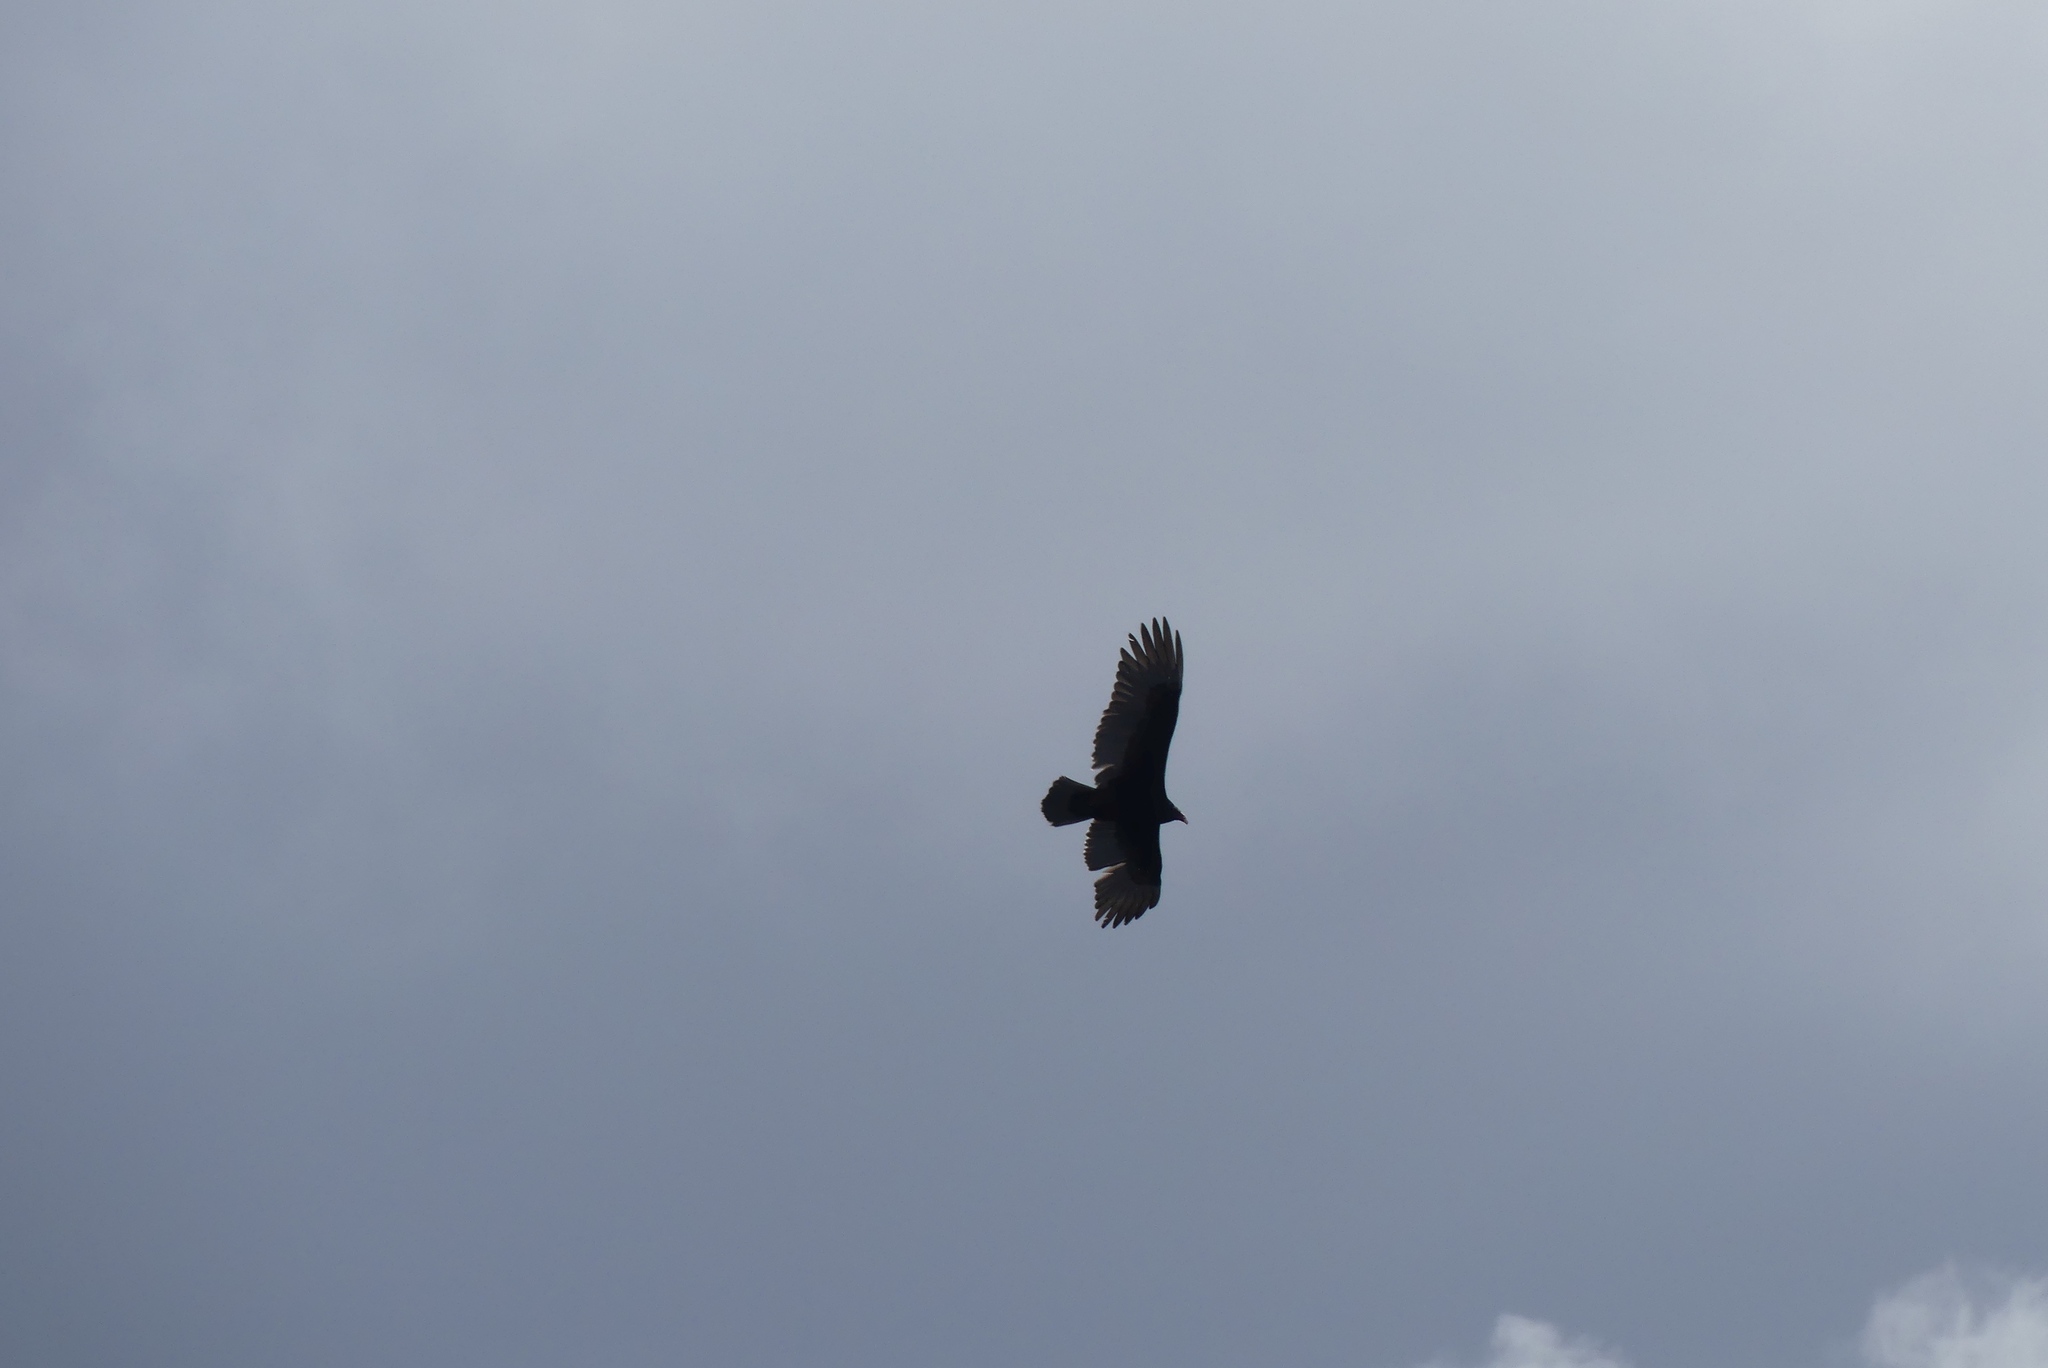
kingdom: Animalia
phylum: Chordata
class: Aves
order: Accipitriformes
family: Cathartidae
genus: Cathartes
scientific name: Cathartes aura
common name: Turkey vulture
